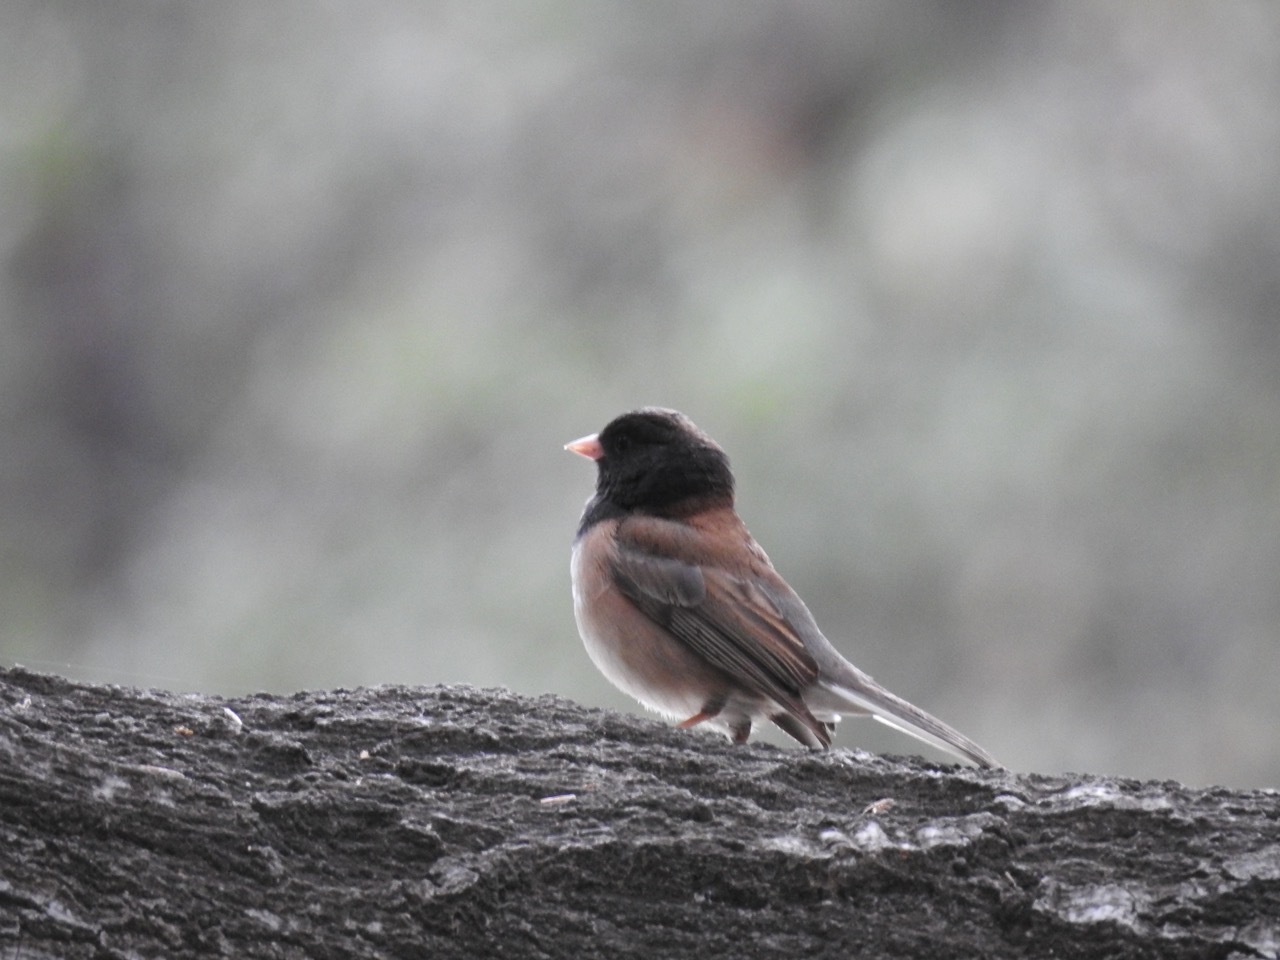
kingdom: Animalia
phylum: Chordata
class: Aves
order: Passeriformes
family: Passerellidae
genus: Junco
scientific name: Junco hyemalis
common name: Dark-eyed junco
